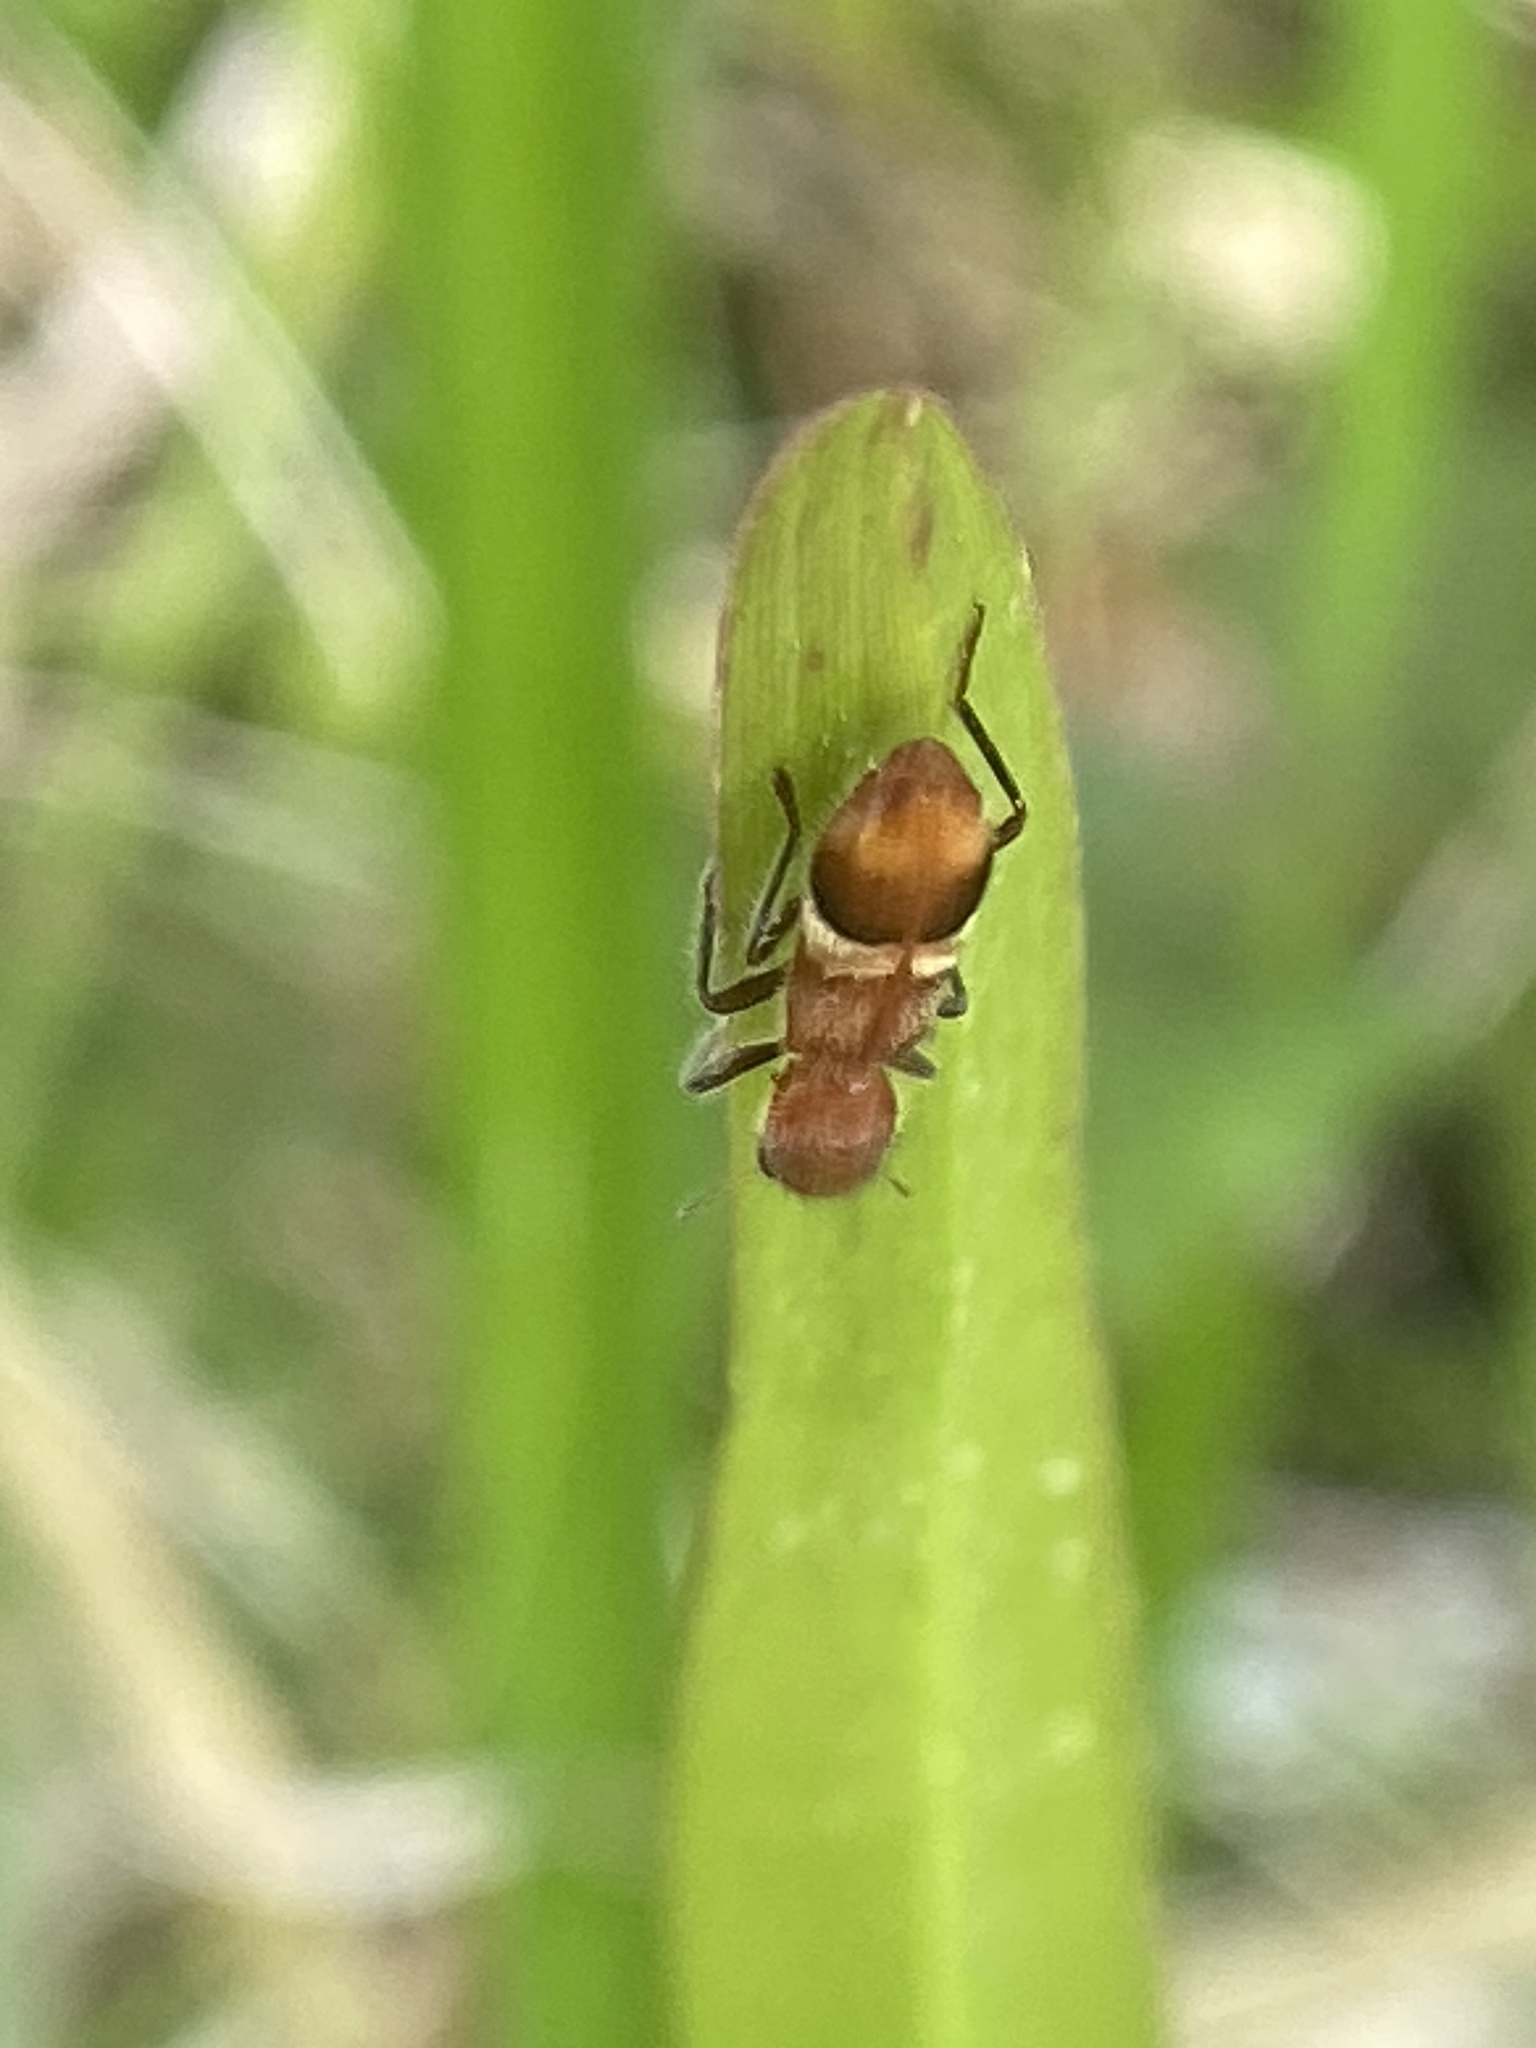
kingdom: Animalia
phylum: Arthropoda
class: Insecta
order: Coleoptera
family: Cleridae
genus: Enoclerus
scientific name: Enoclerus lunatus
